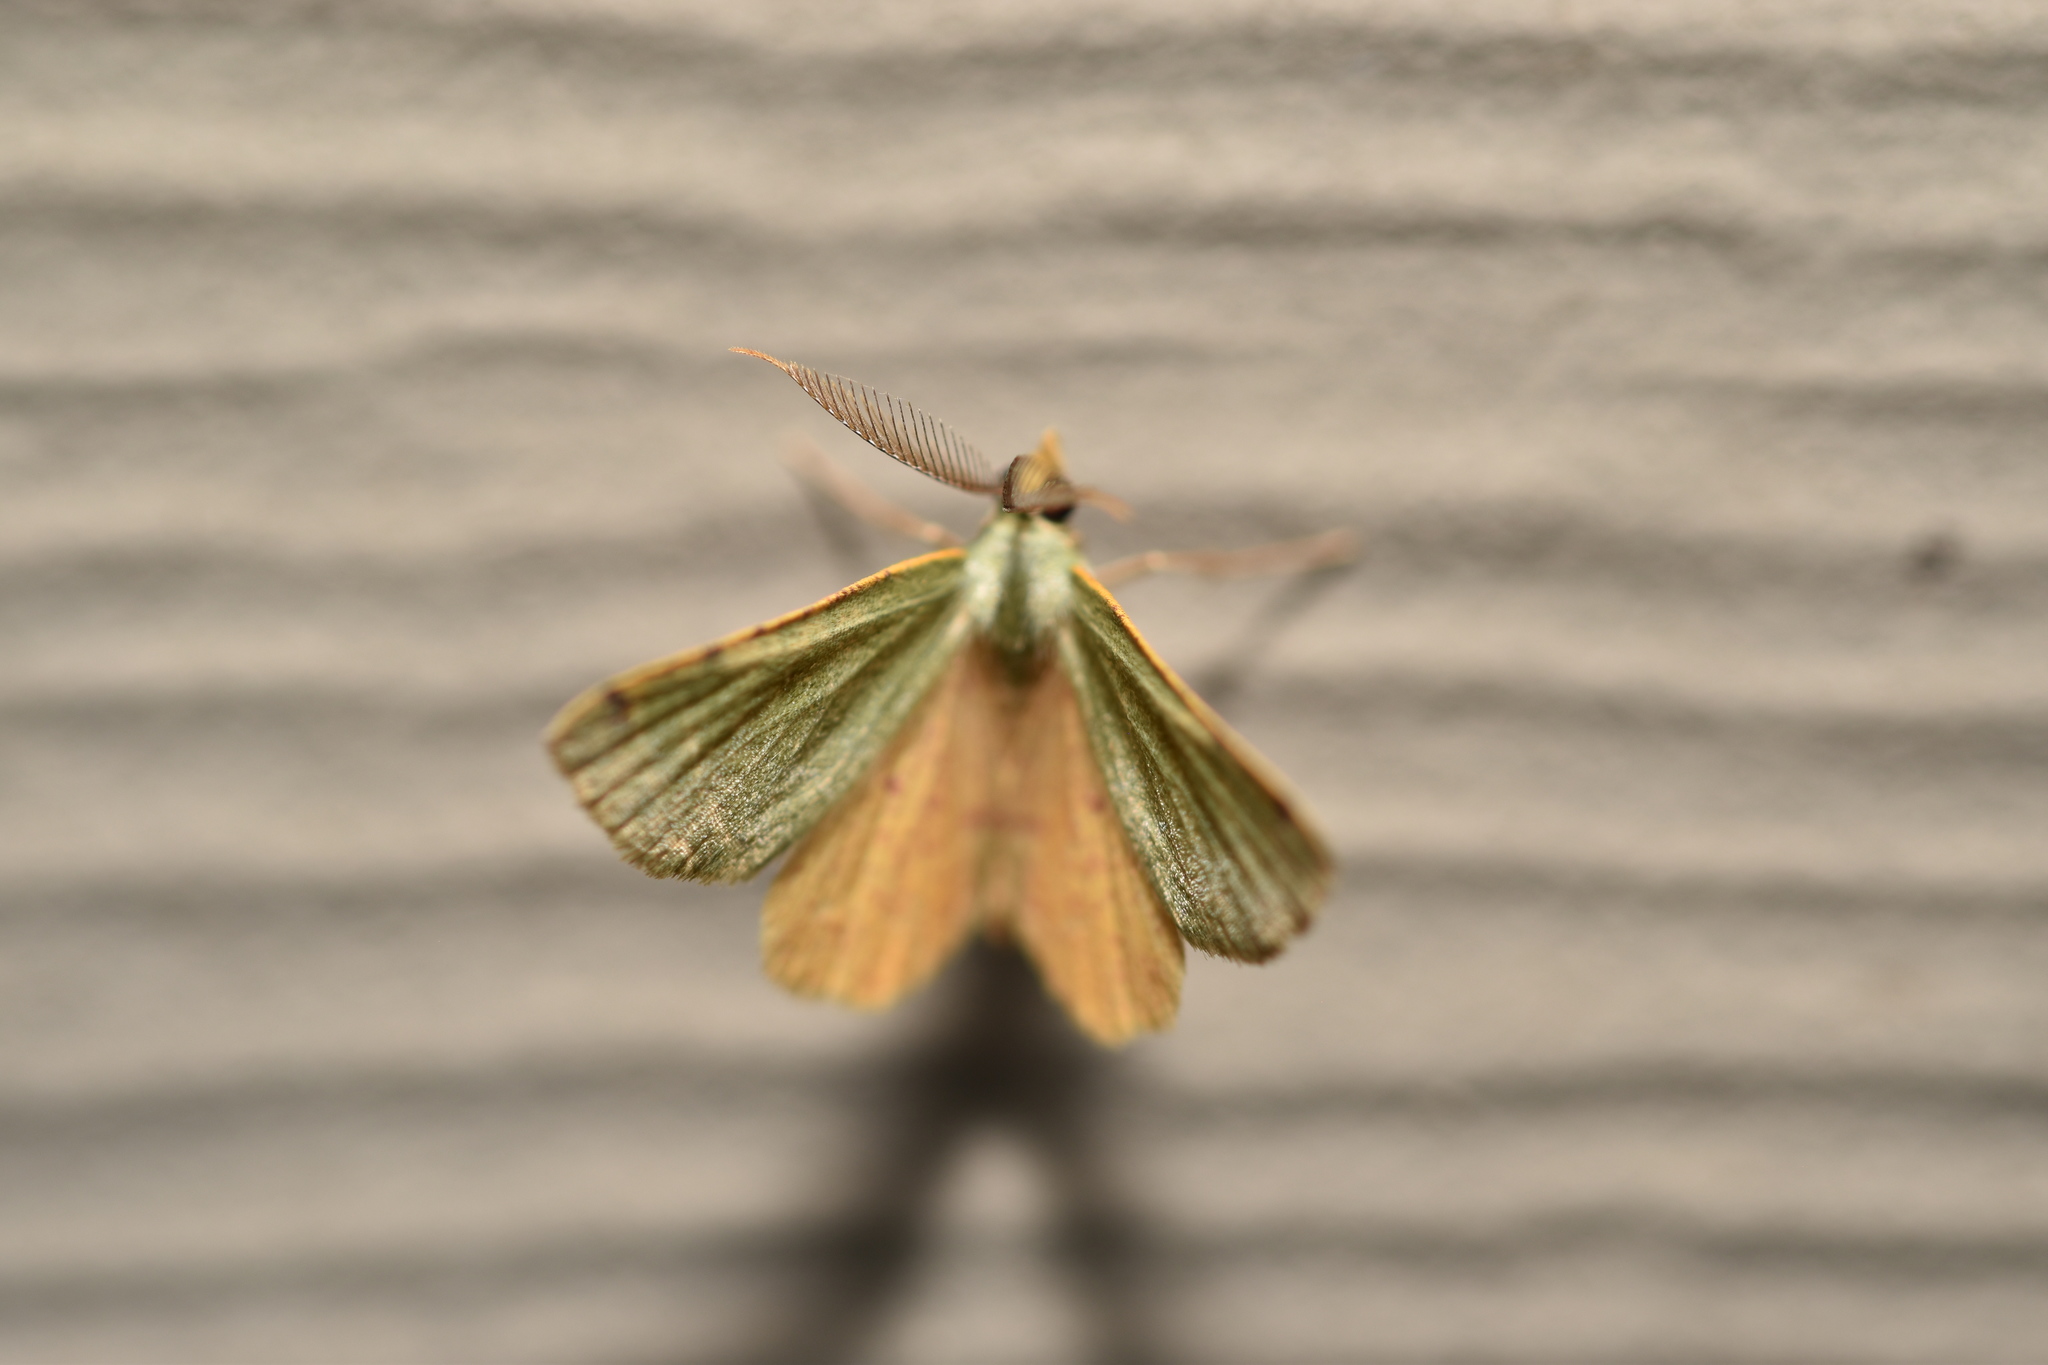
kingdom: Animalia
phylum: Arthropoda
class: Insecta
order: Lepidoptera
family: Geometridae
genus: Chloraspilates
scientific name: Chloraspilates bicoloraria
